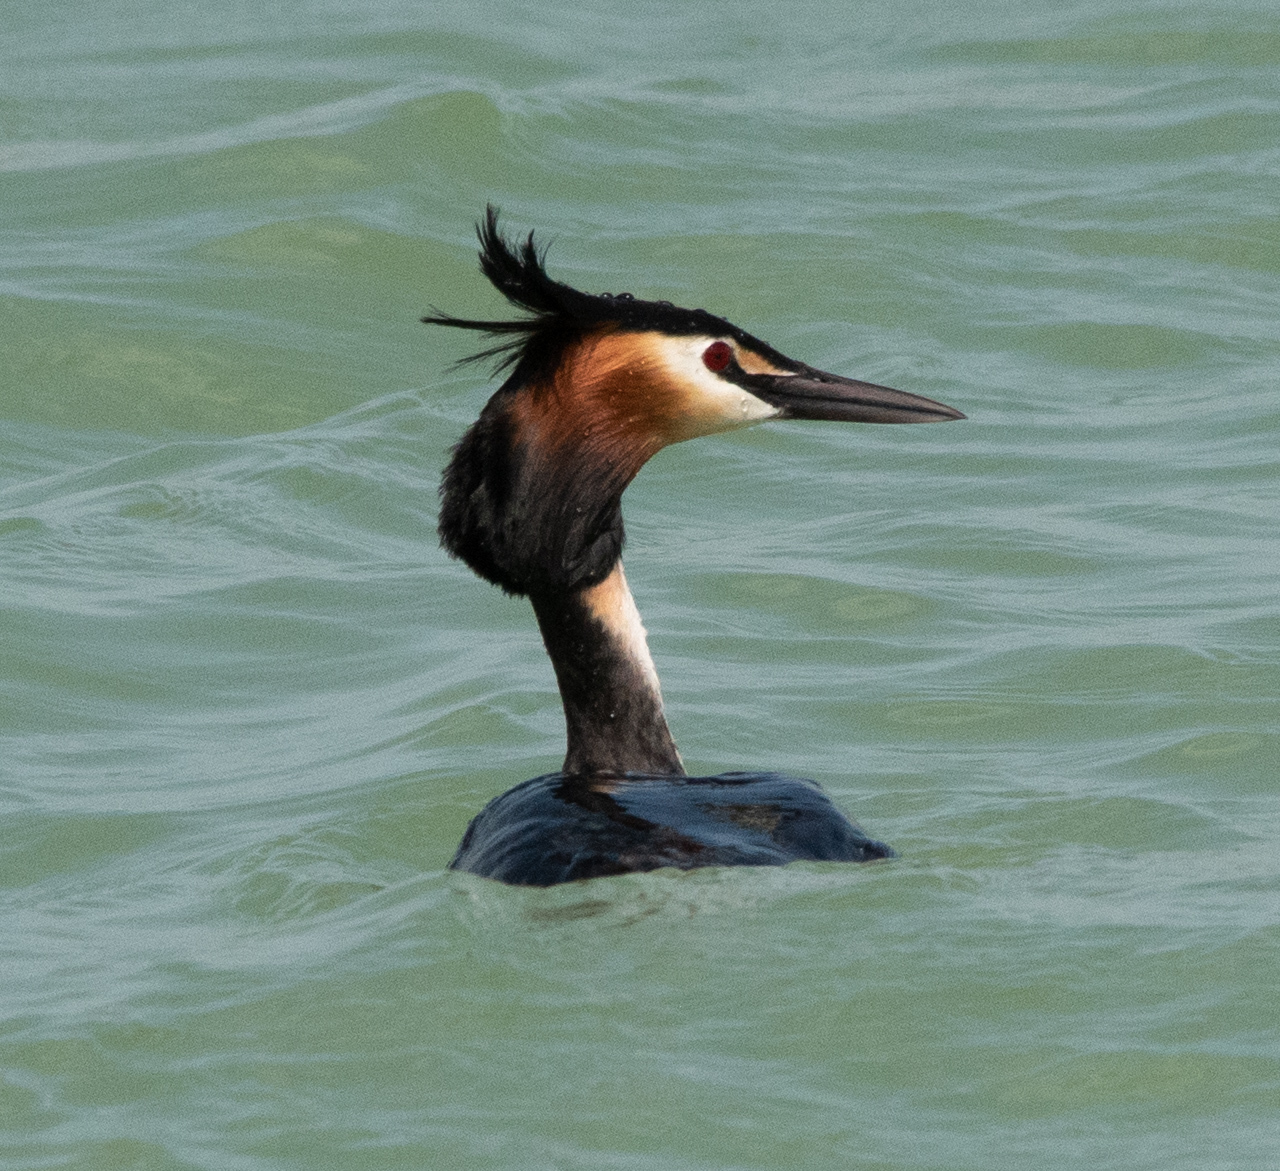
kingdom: Animalia
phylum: Chordata
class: Aves
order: Podicipediformes
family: Podicipedidae
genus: Podiceps
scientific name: Podiceps cristatus
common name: Great crested grebe
